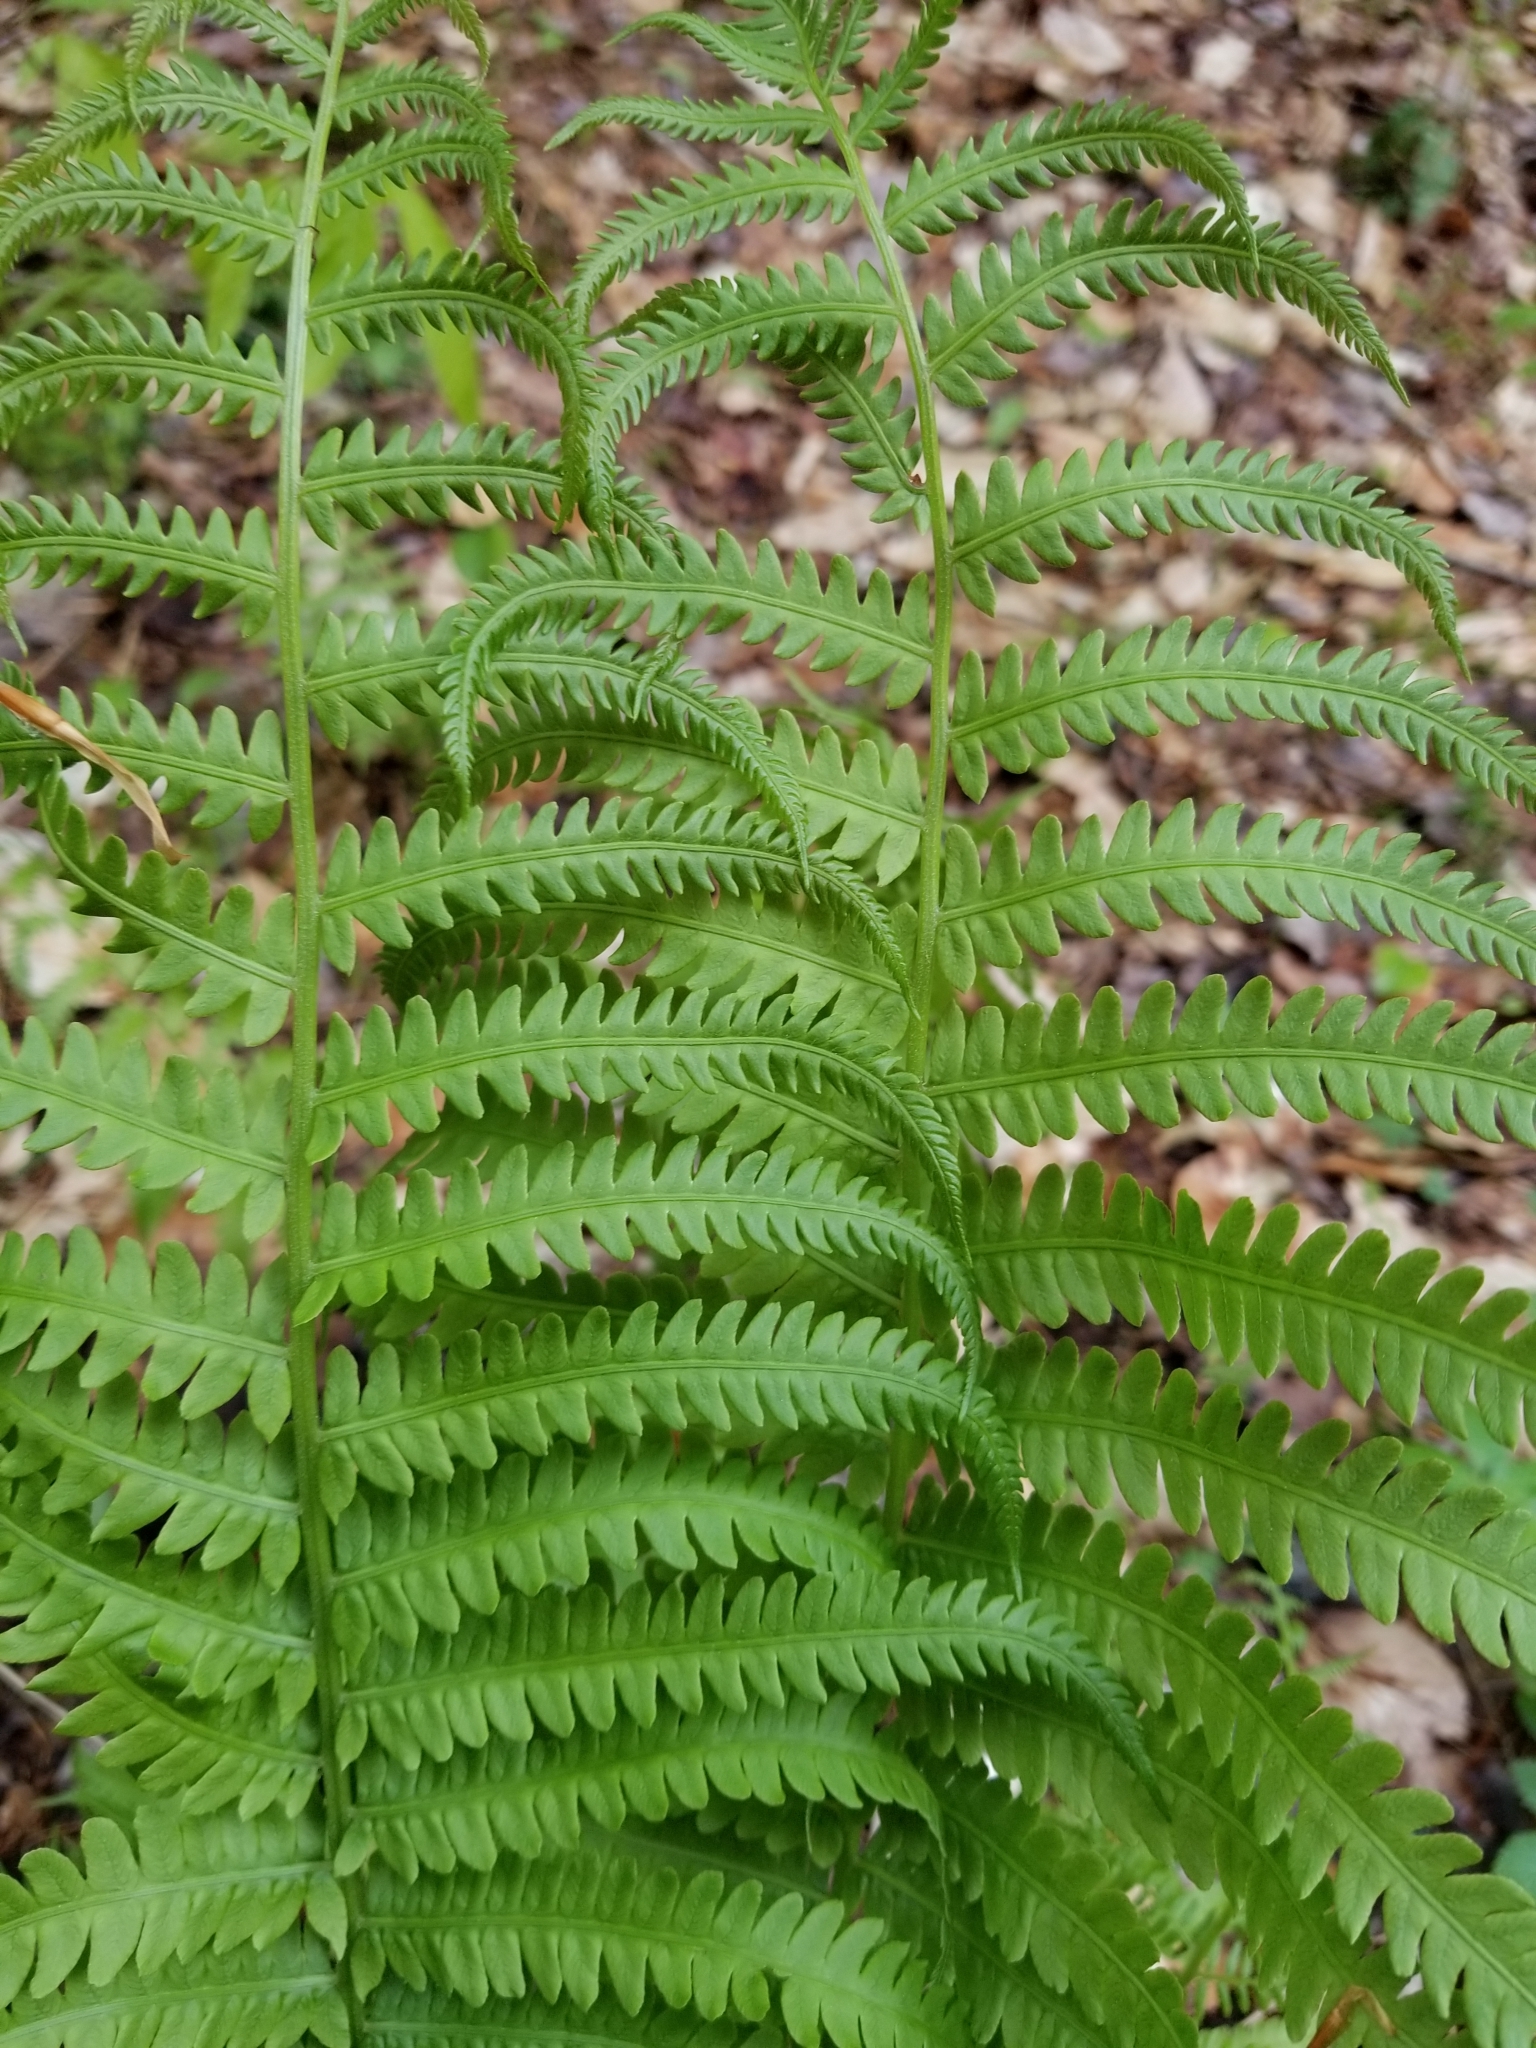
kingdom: Plantae
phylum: Tracheophyta
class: Polypodiopsida
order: Osmundales
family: Osmundaceae
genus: Osmundastrum
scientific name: Osmundastrum cinnamomeum
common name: Cinnamon fern
